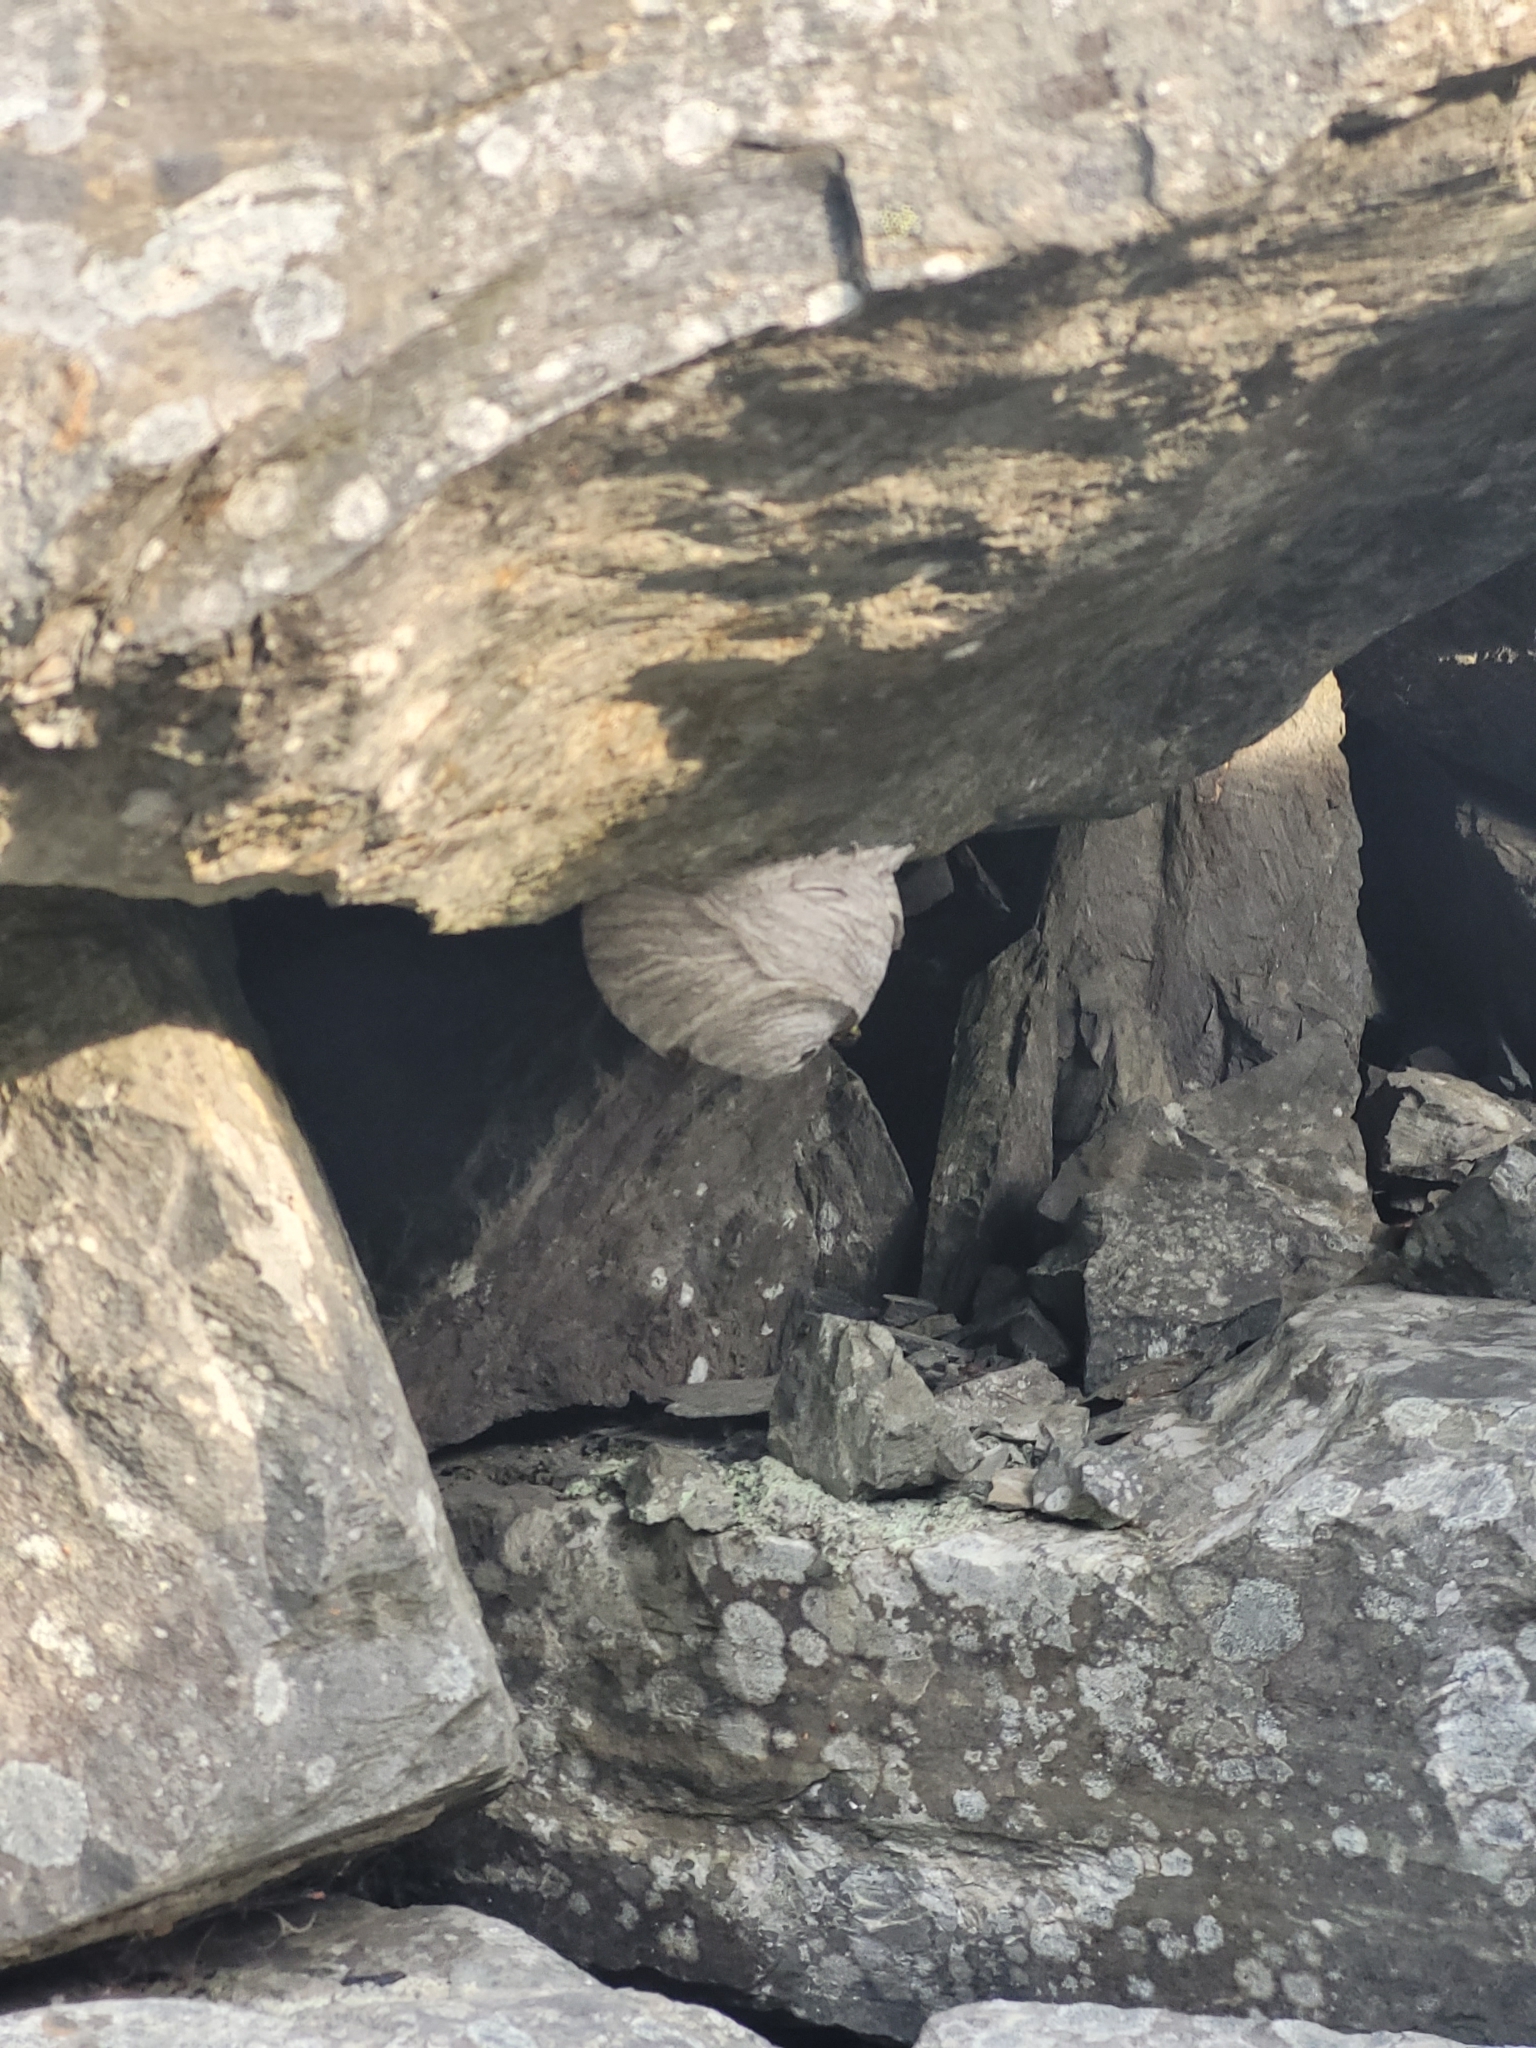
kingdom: Animalia
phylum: Arthropoda
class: Insecta
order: Hymenoptera
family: Vespidae
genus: Dolichovespula
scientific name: Dolichovespula
